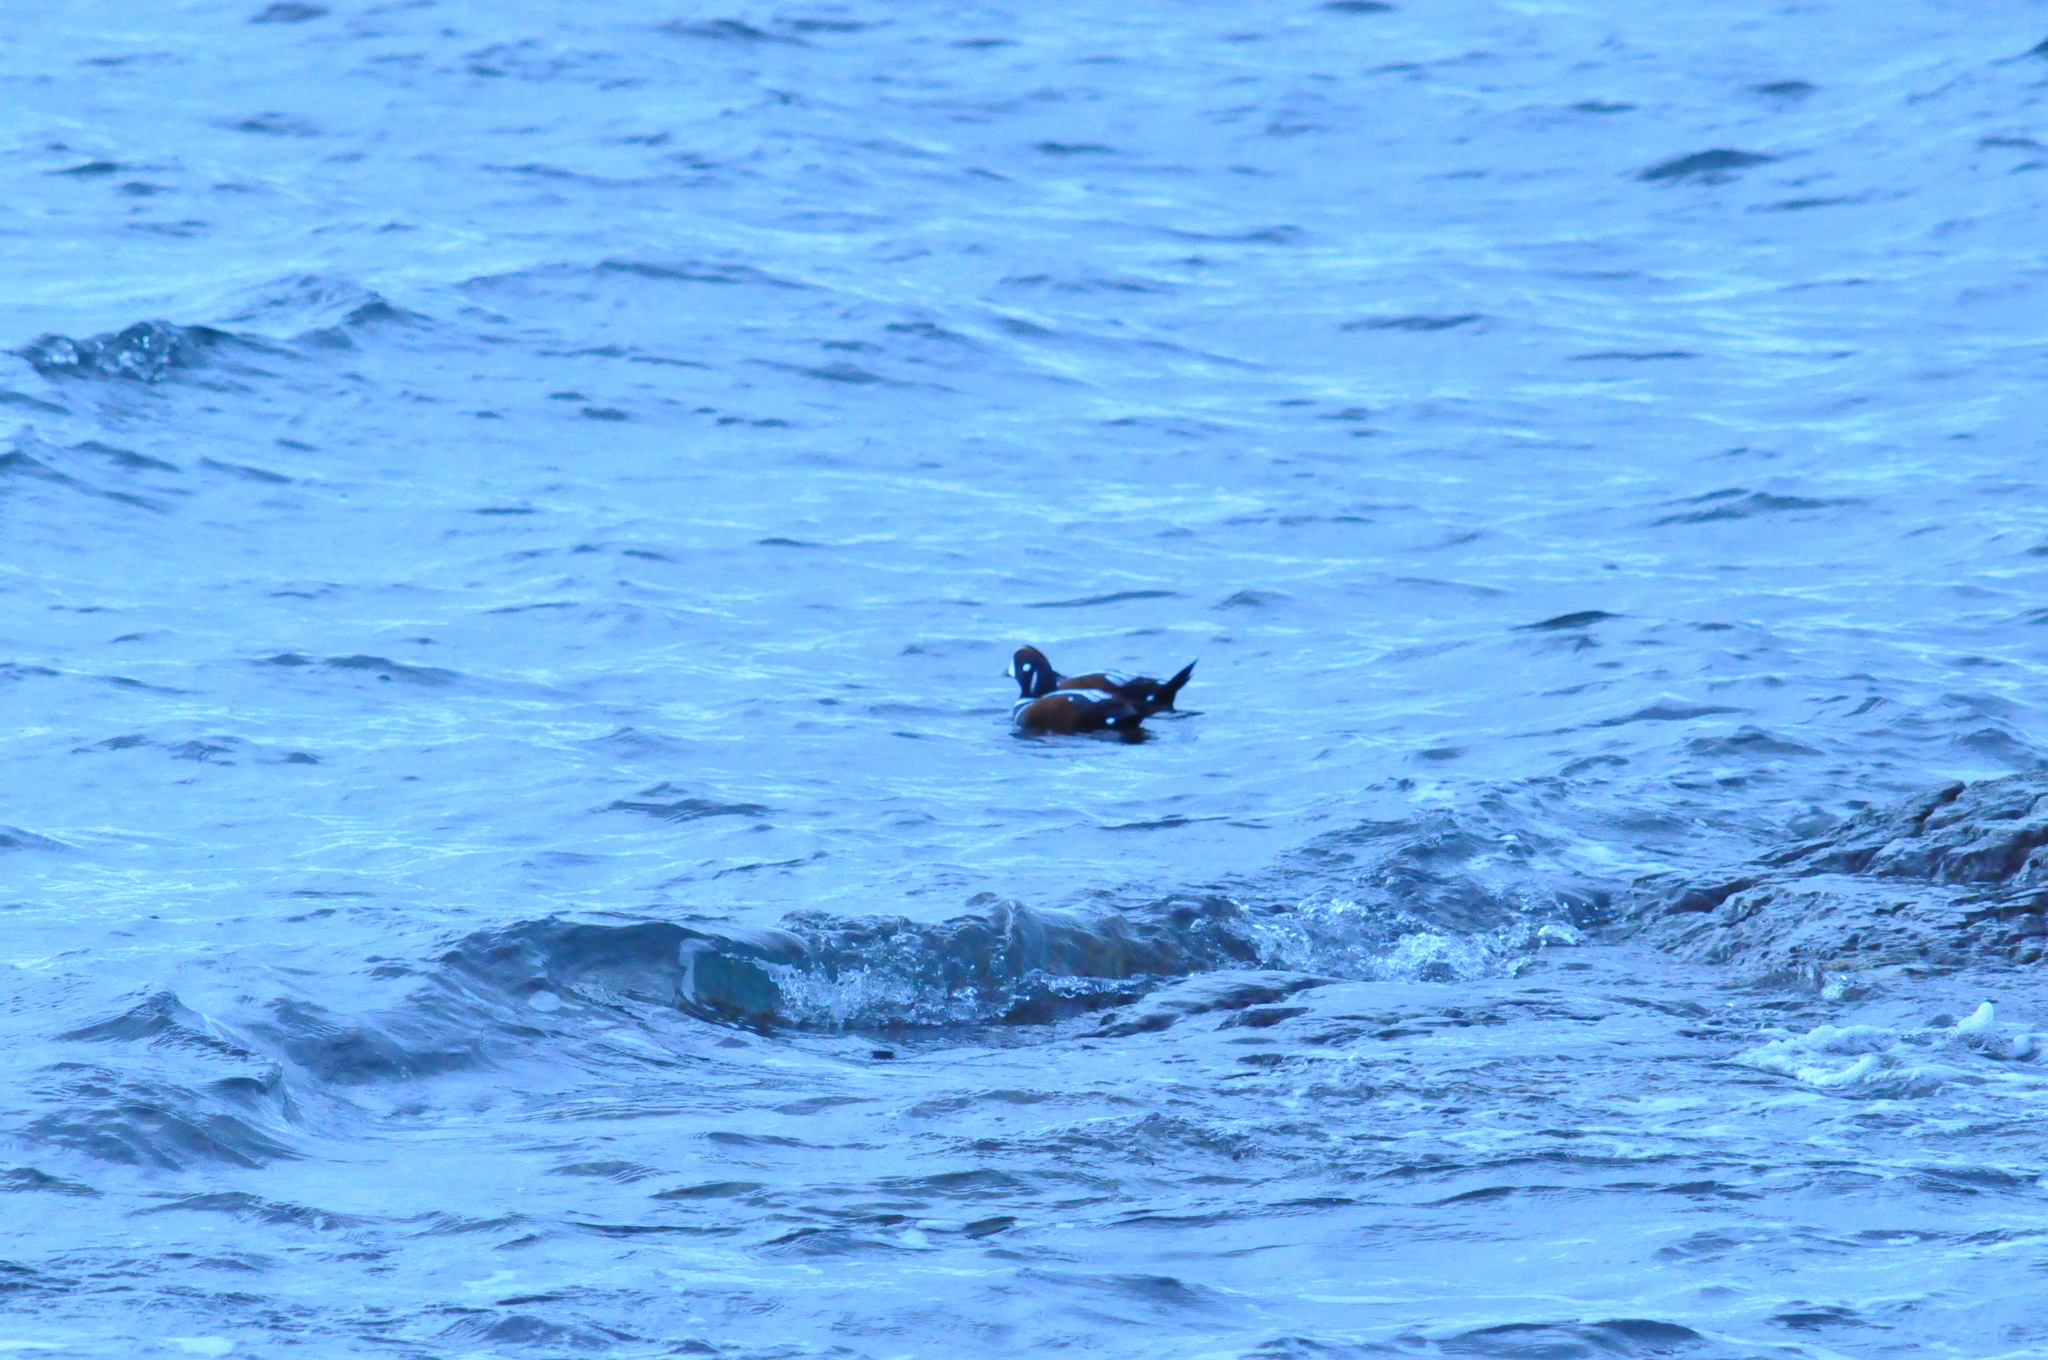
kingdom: Animalia
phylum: Chordata
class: Aves
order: Anseriformes
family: Anatidae
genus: Histrionicus
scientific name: Histrionicus histrionicus
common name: Harlequin duck
